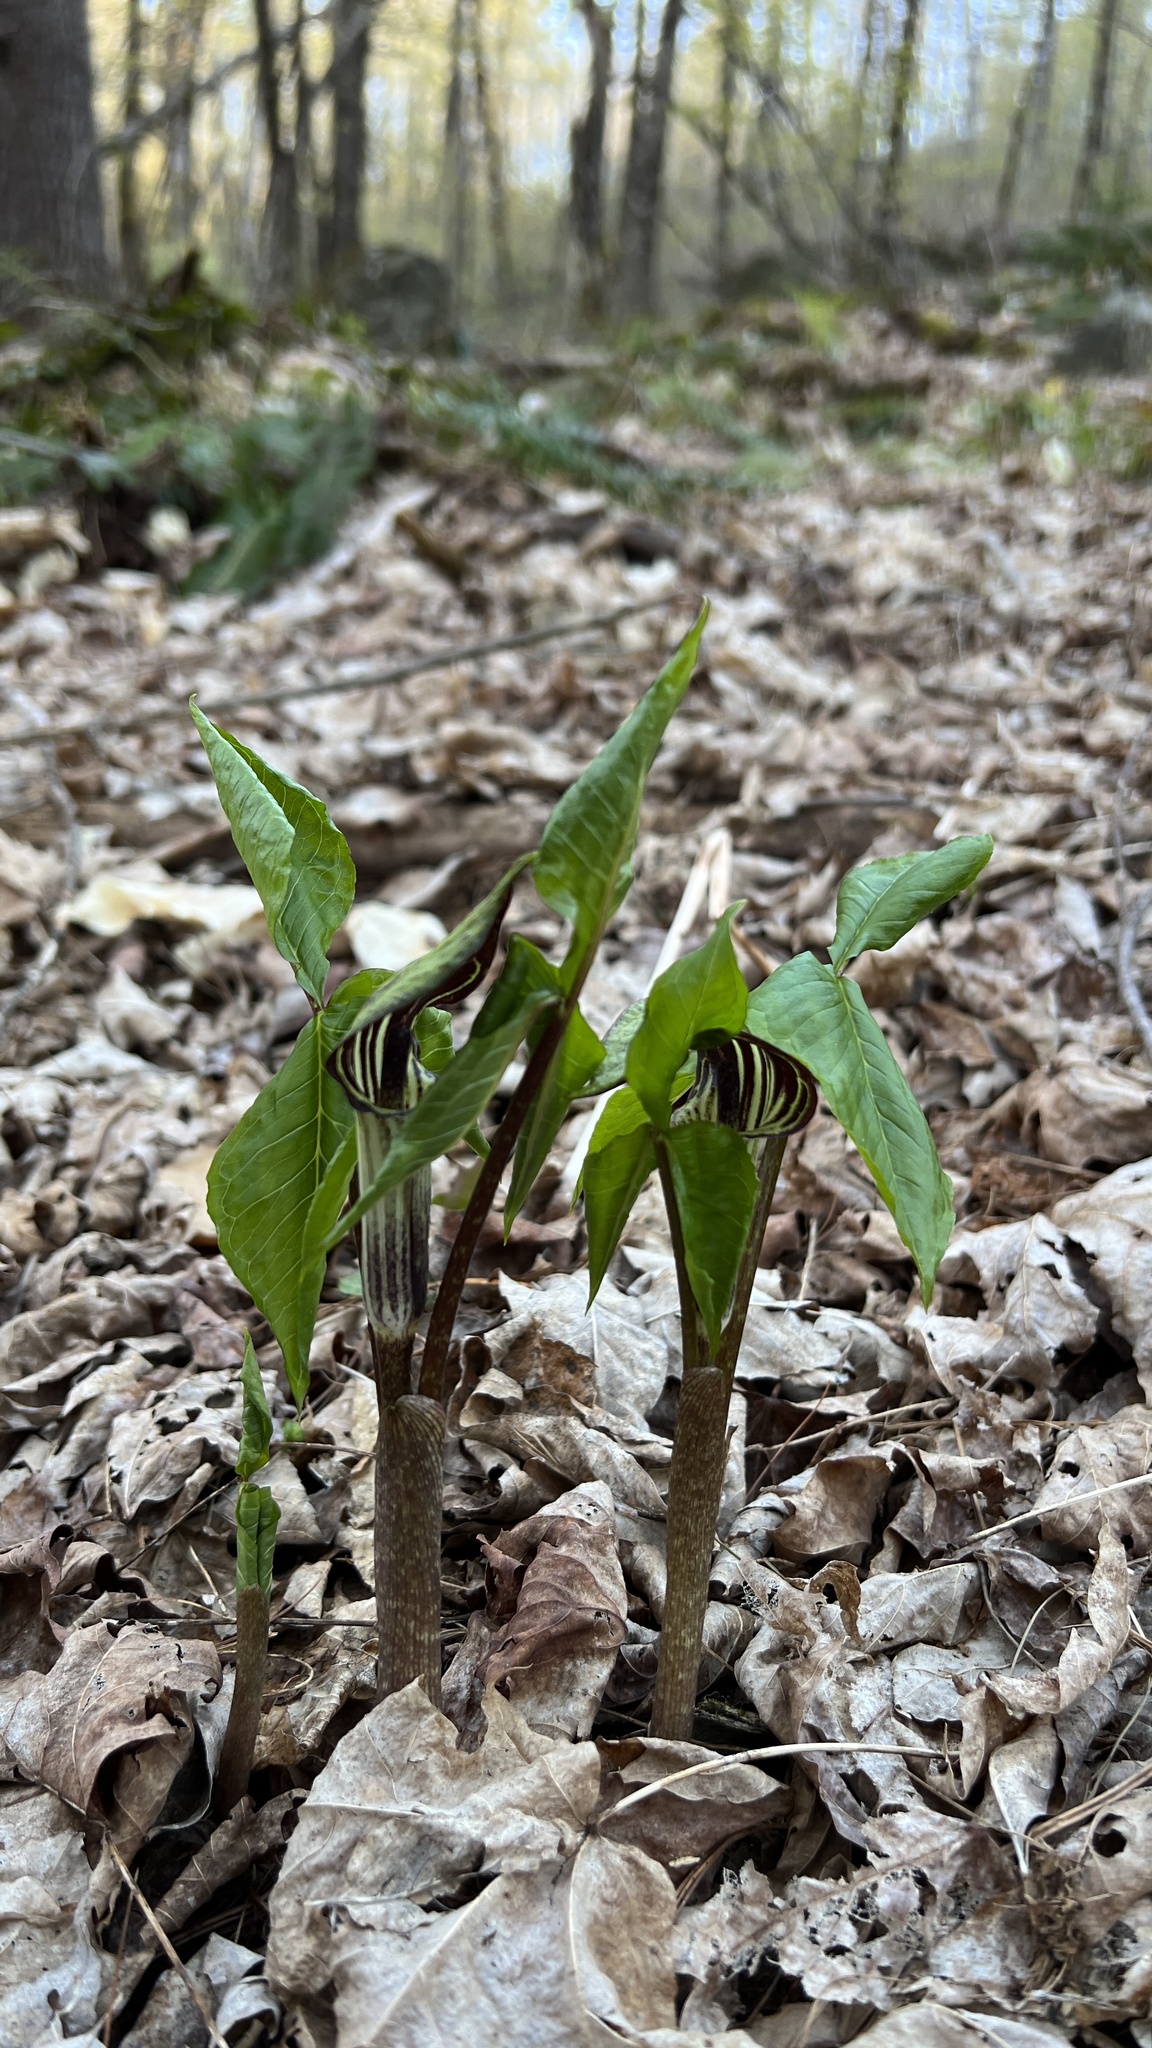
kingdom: Plantae
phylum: Tracheophyta
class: Liliopsida
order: Alismatales
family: Araceae
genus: Arisaema
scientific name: Arisaema triphyllum
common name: Jack-in-the-pulpit
